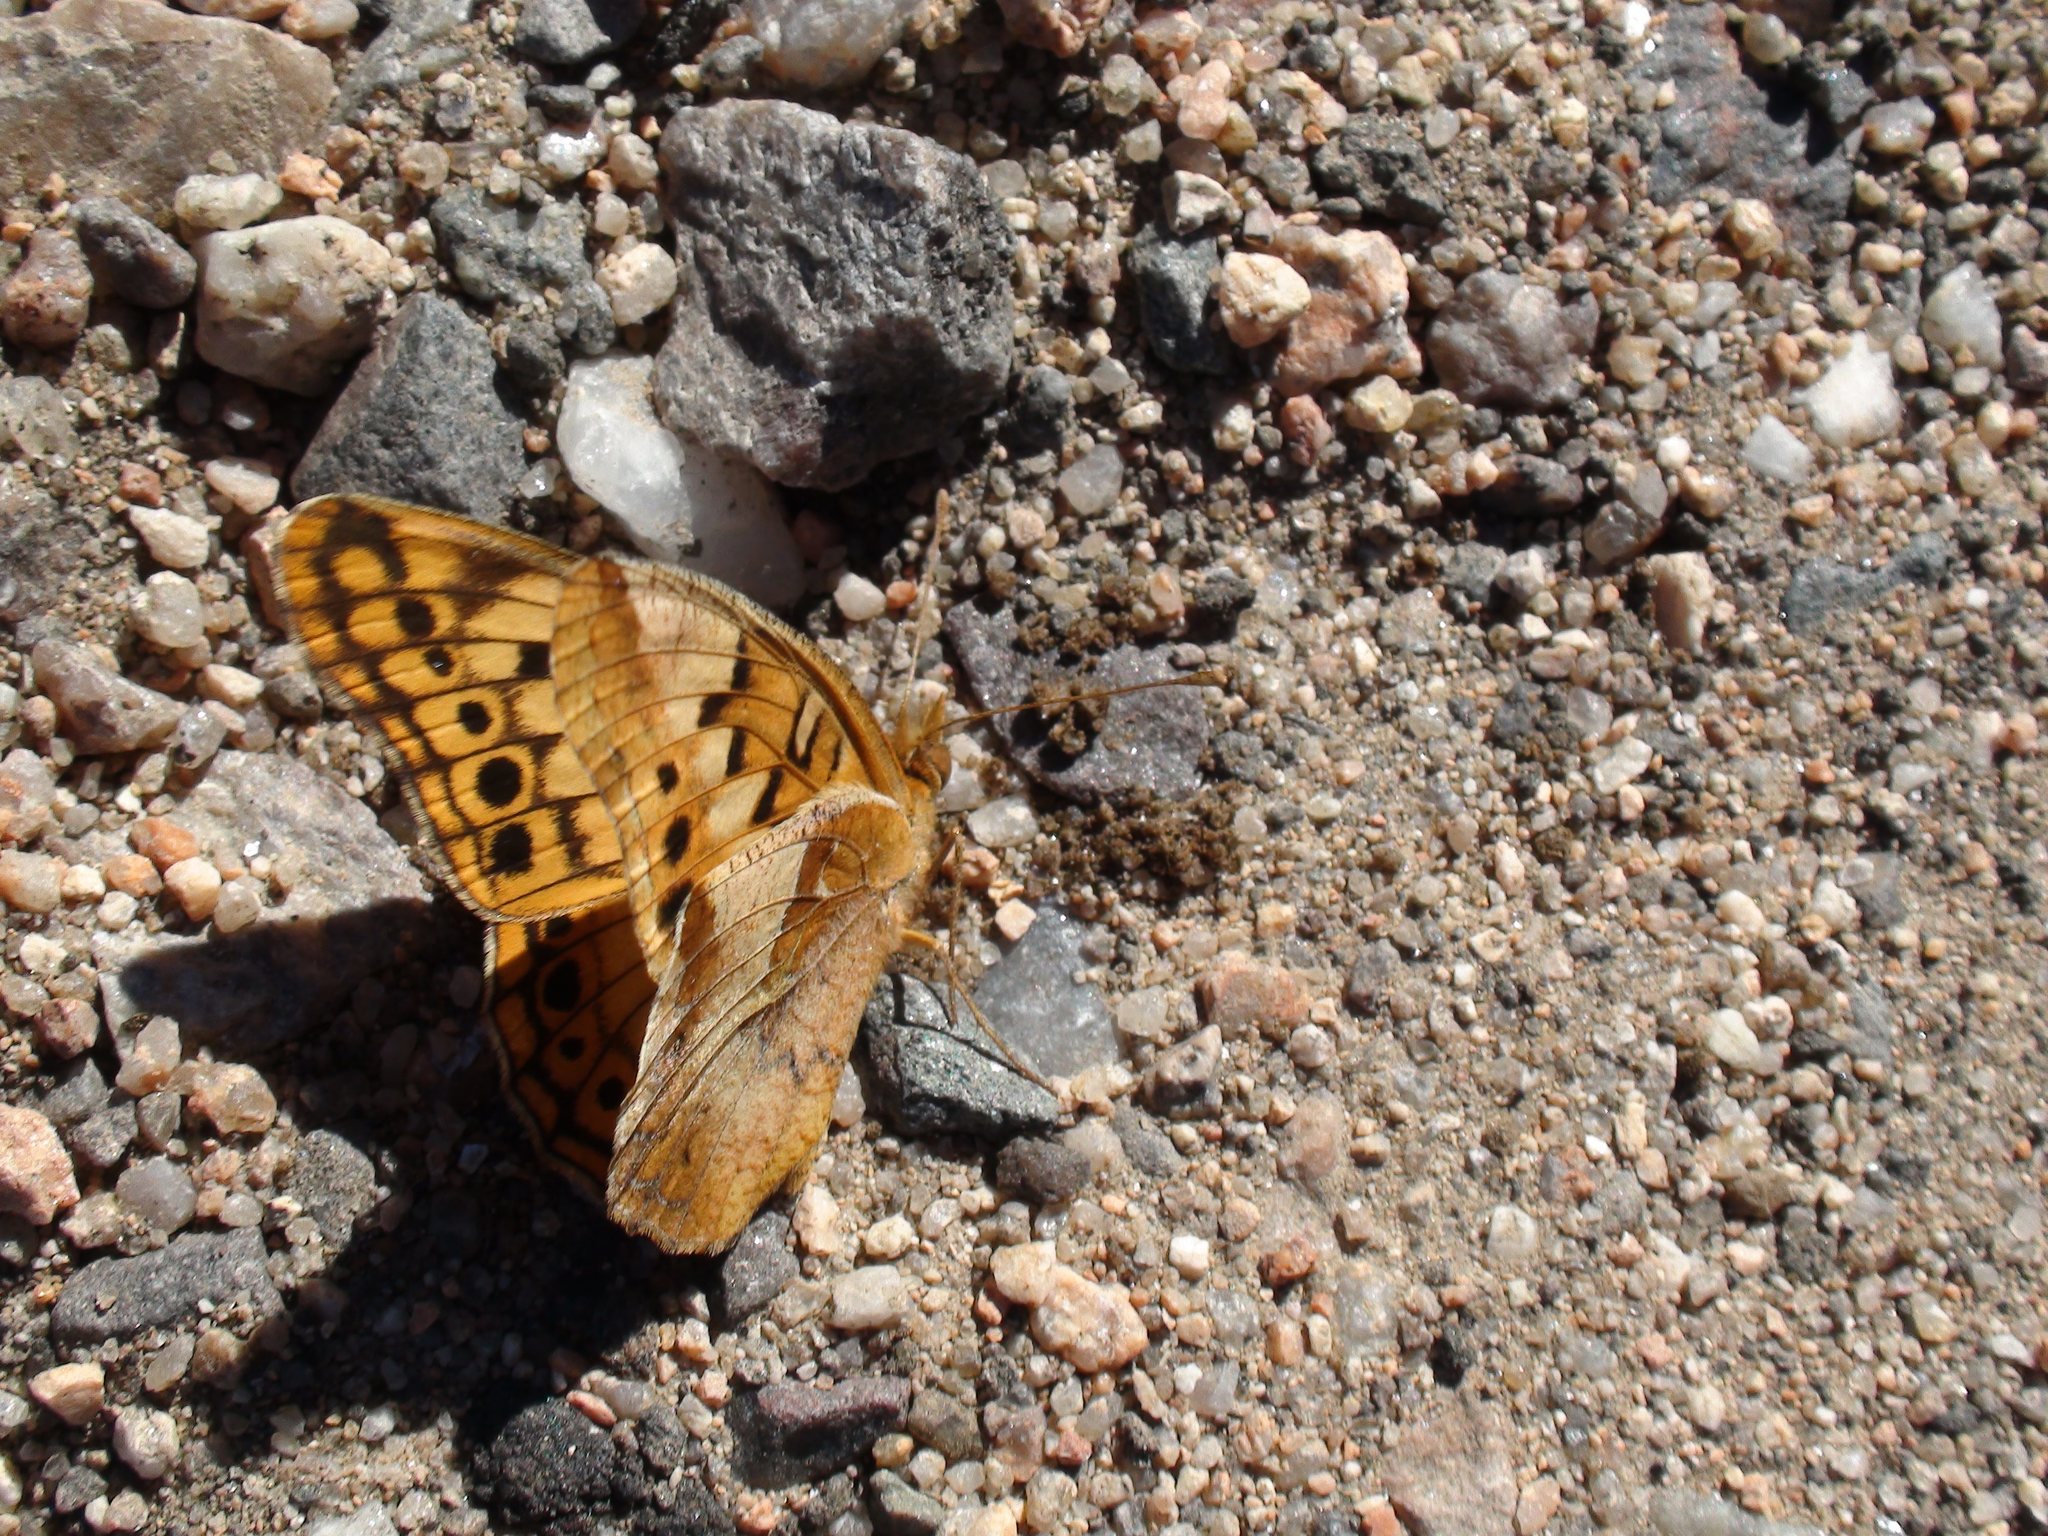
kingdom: Animalia
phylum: Arthropoda
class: Insecta
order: Lepidoptera
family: Nymphalidae
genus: Euptoieta
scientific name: Euptoieta hortensia
